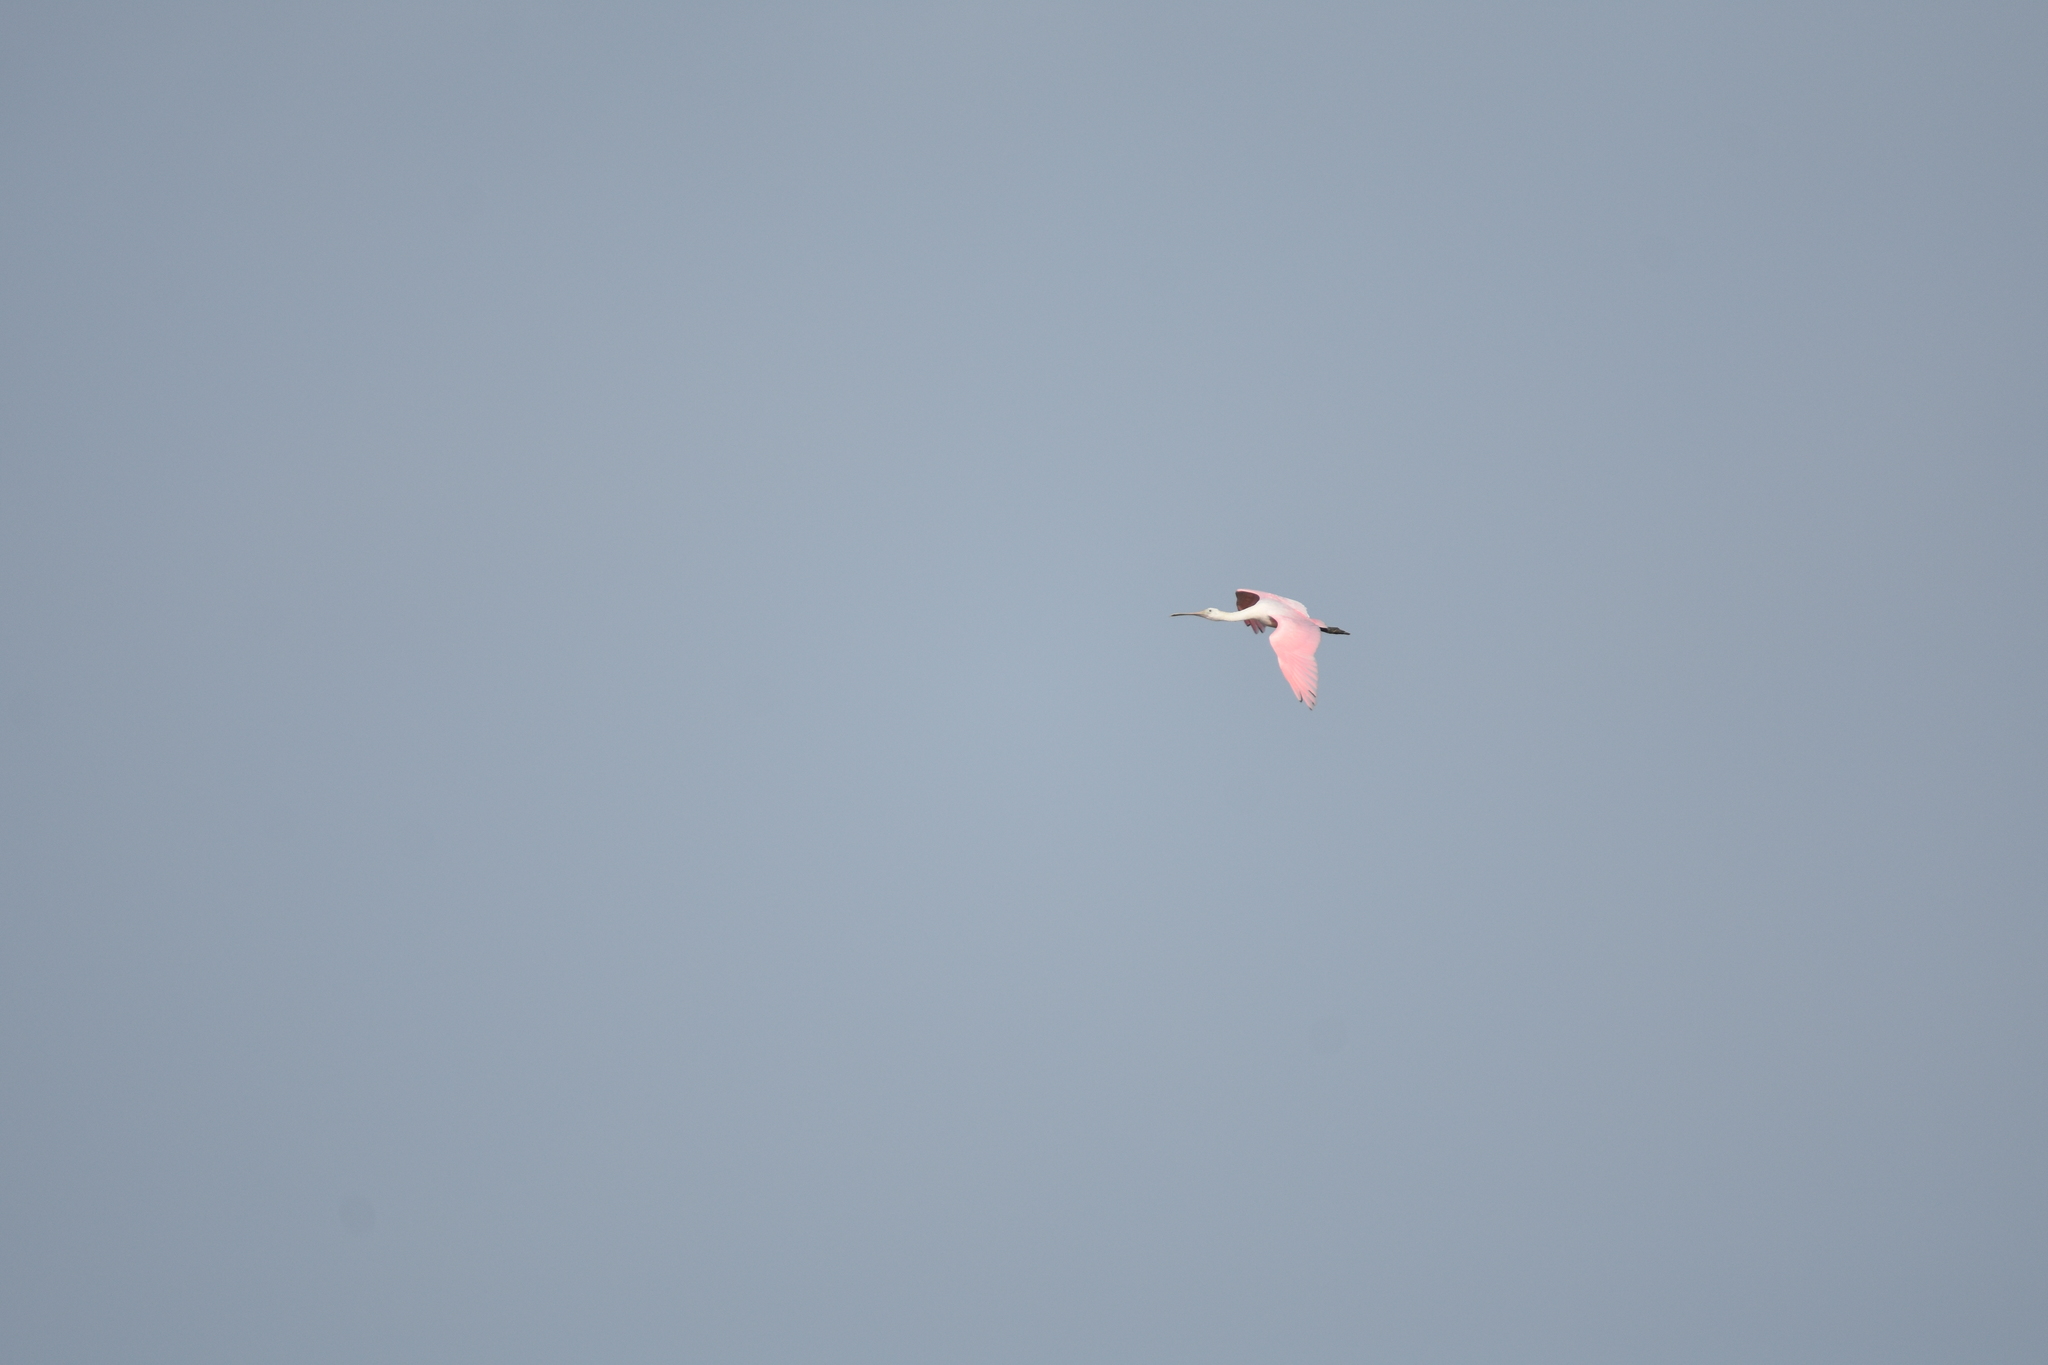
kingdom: Animalia
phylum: Chordata
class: Aves
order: Pelecaniformes
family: Threskiornithidae
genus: Platalea
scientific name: Platalea ajaja
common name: Roseate spoonbill
